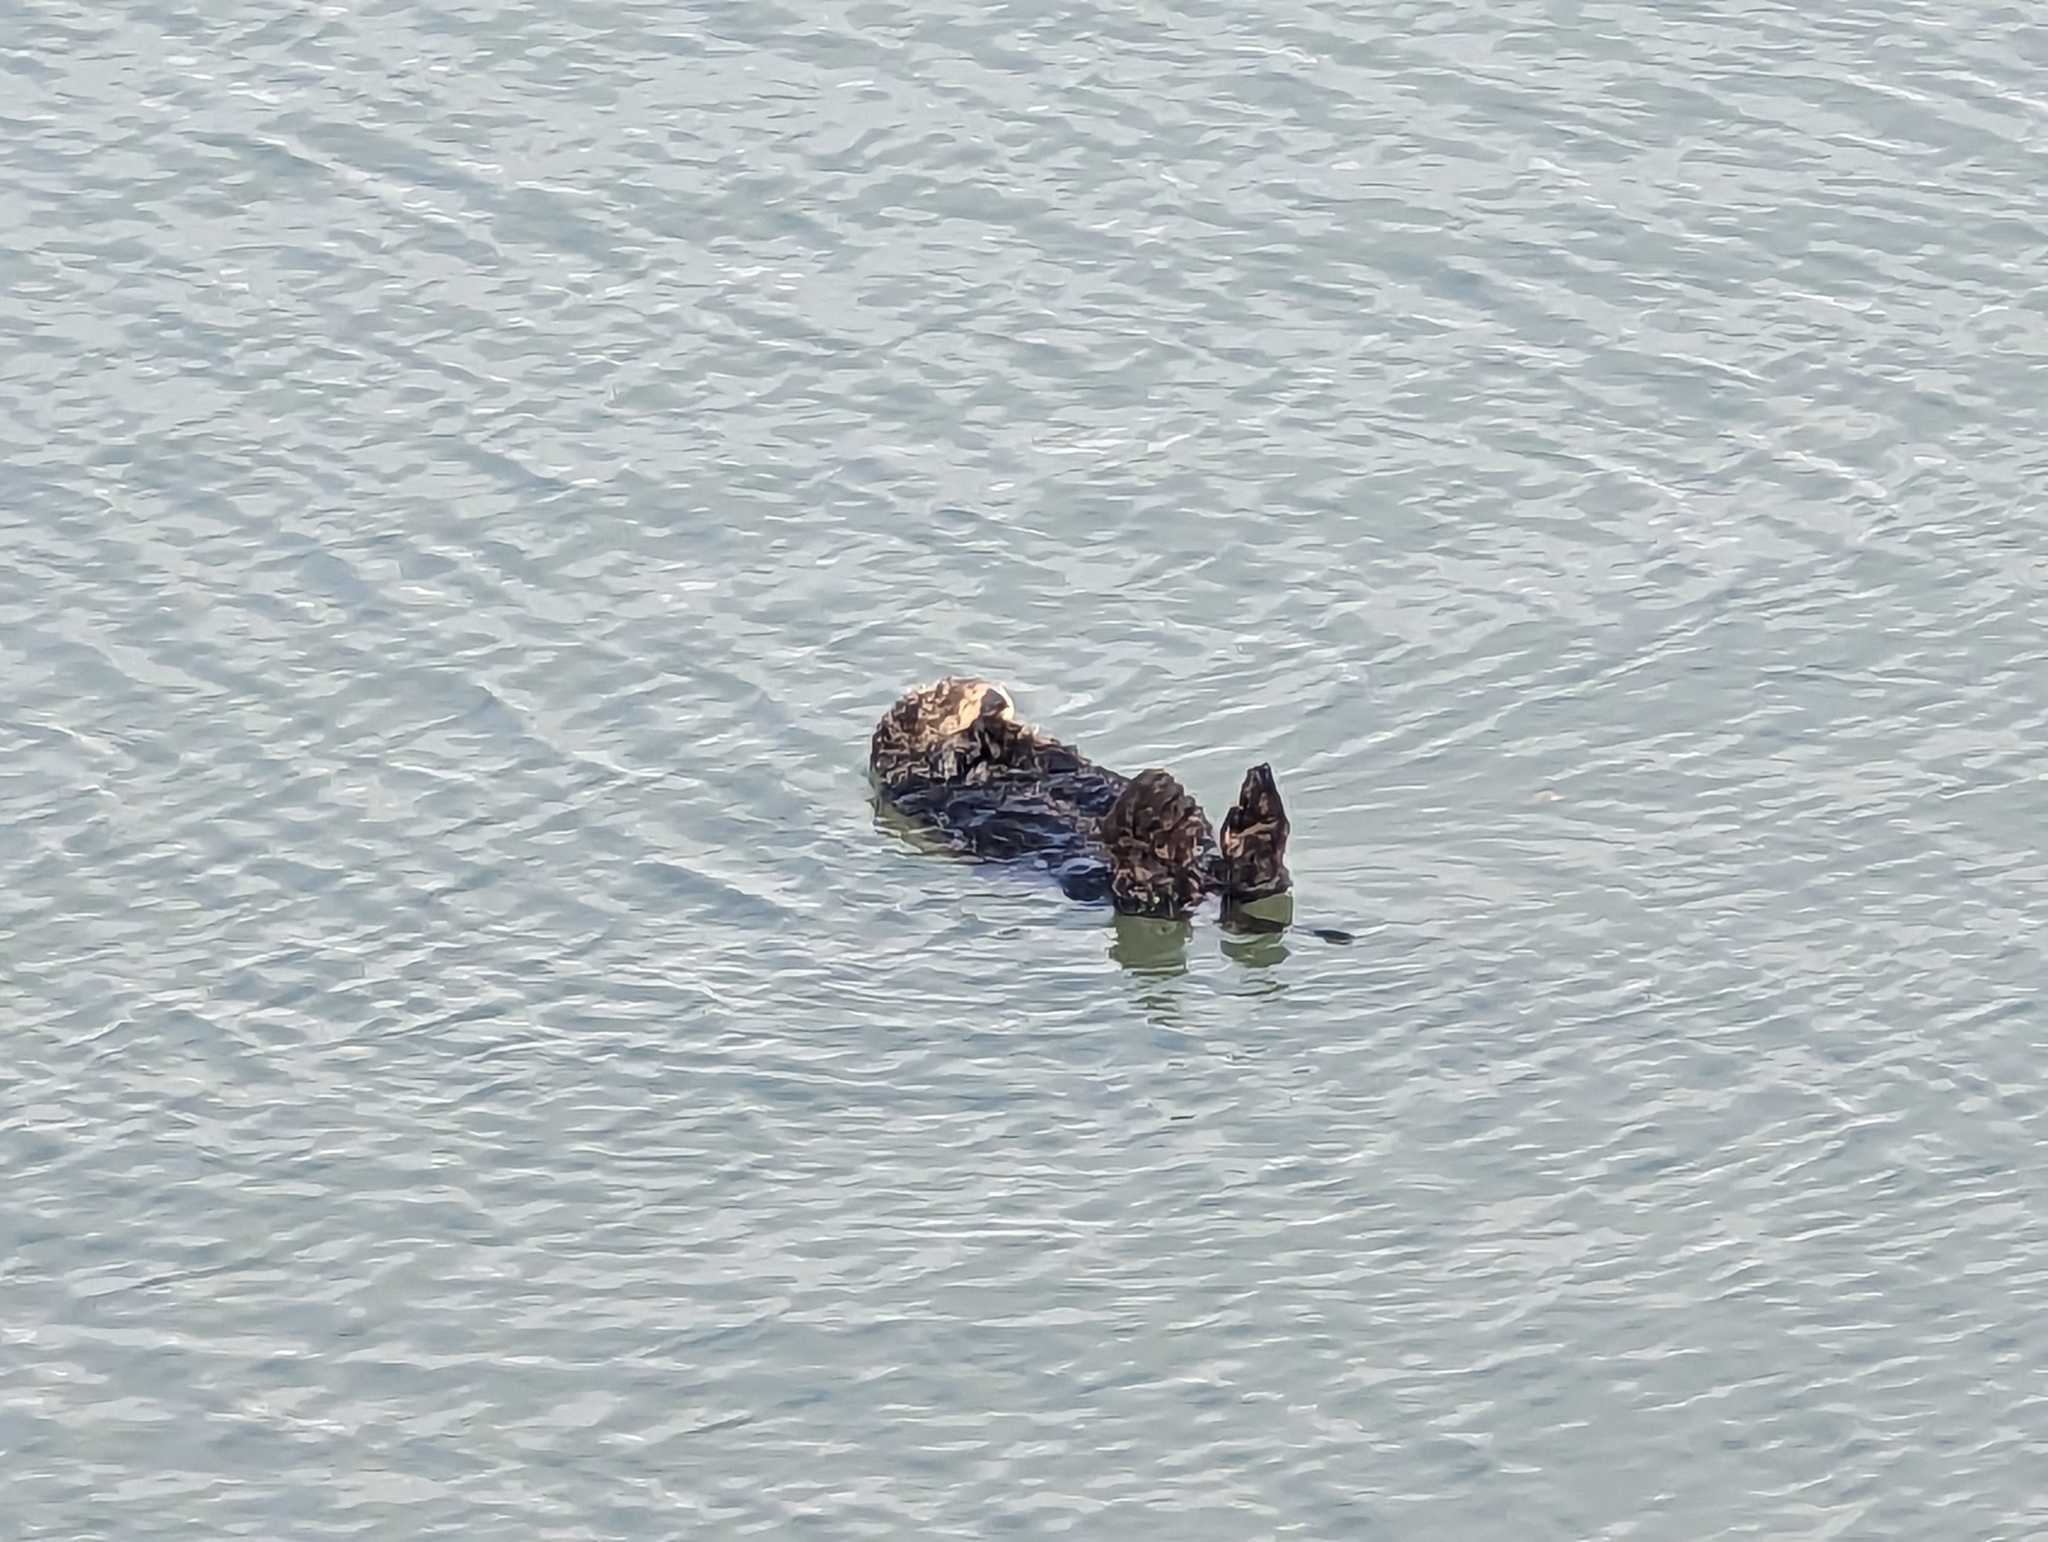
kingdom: Animalia
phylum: Chordata
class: Mammalia
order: Carnivora
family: Mustelidae
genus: Enhydra
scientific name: Enhydra lutris
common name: Sea otter
